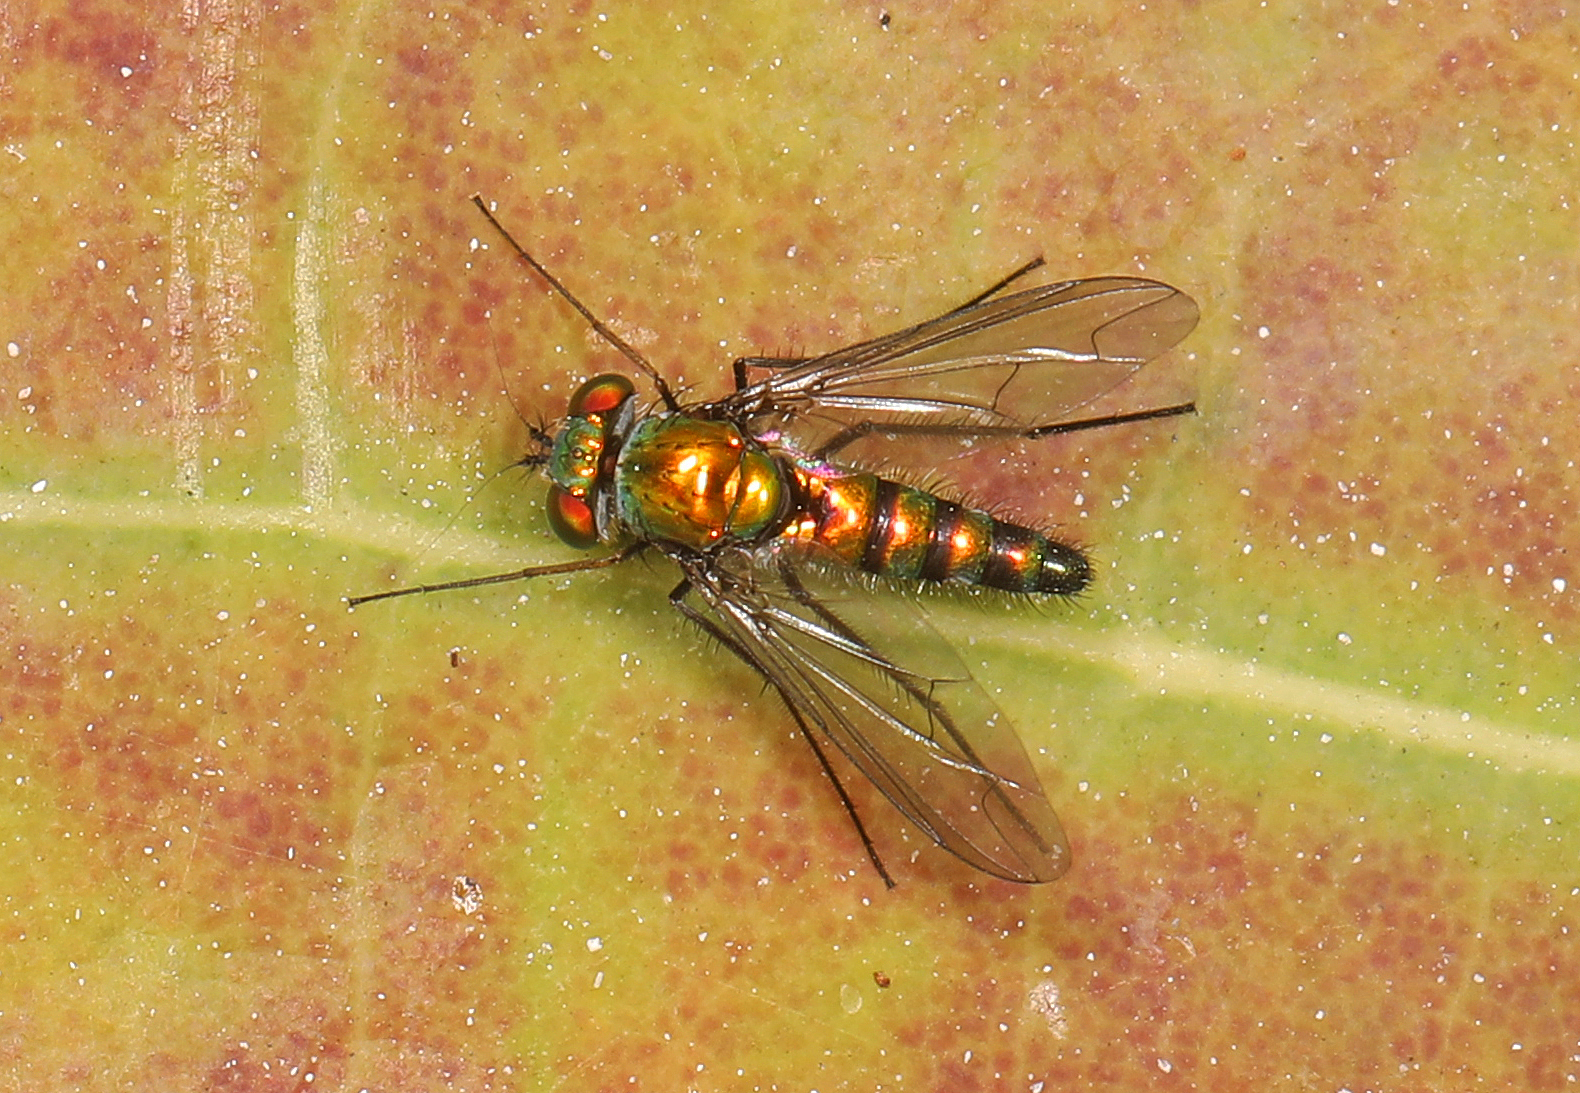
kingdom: Animalia
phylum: Arthropoda
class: Insecta
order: Diptera
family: Dolichopodidae
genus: Condylostylus
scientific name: Condylostylus longicornis
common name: Long-legged fly
